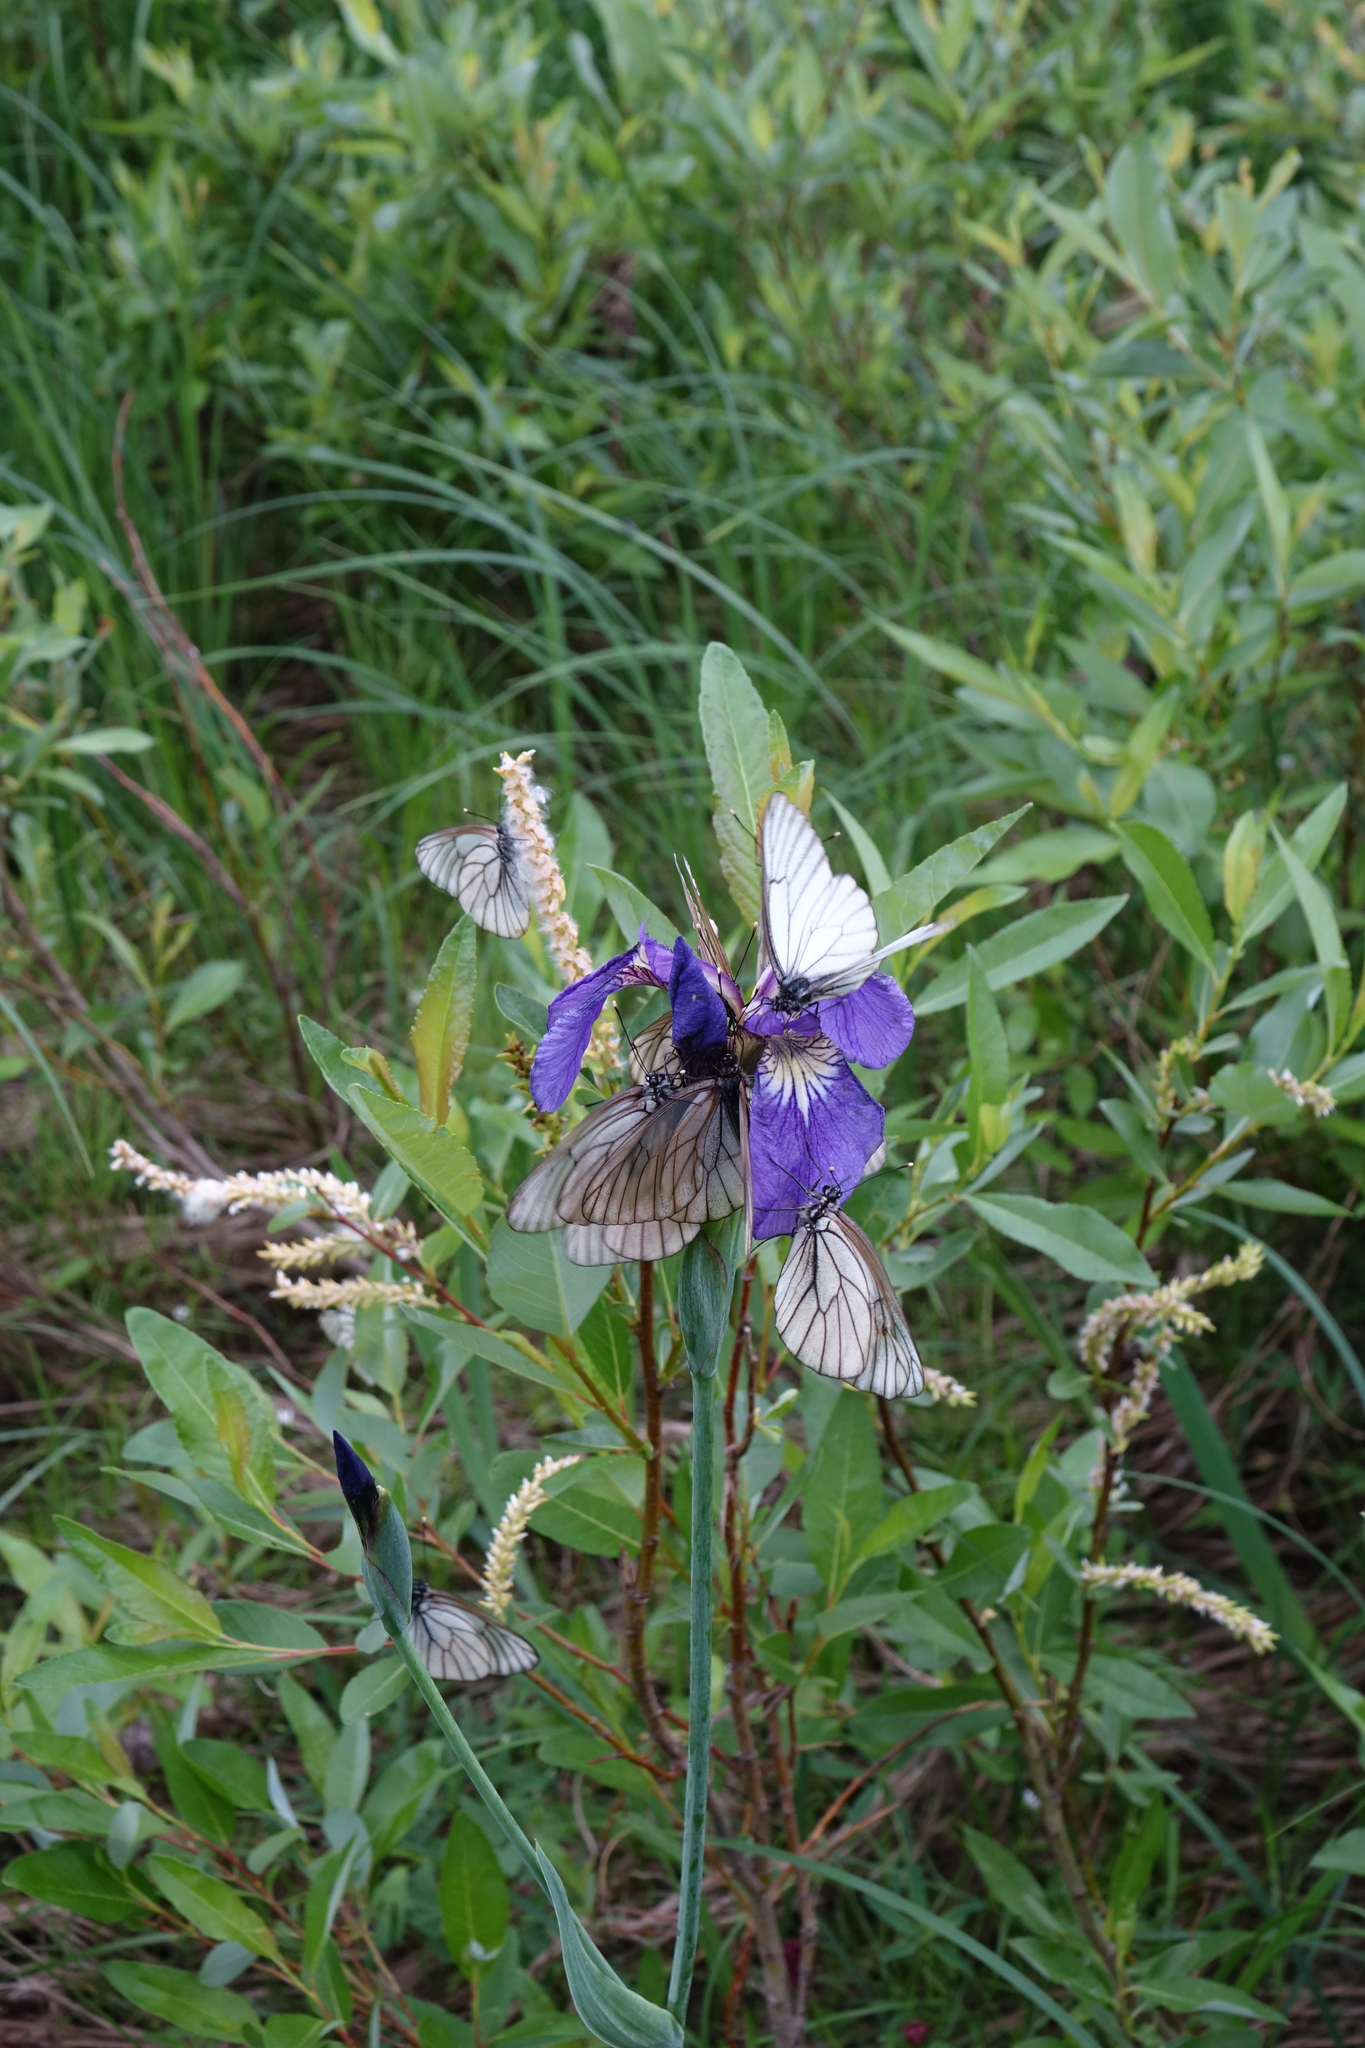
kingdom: Plantae
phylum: Tracheophyta
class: Liliopsida
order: Asparagales
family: Iridaceae
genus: Iris
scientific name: Iris setosa
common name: Arctic blue flag
